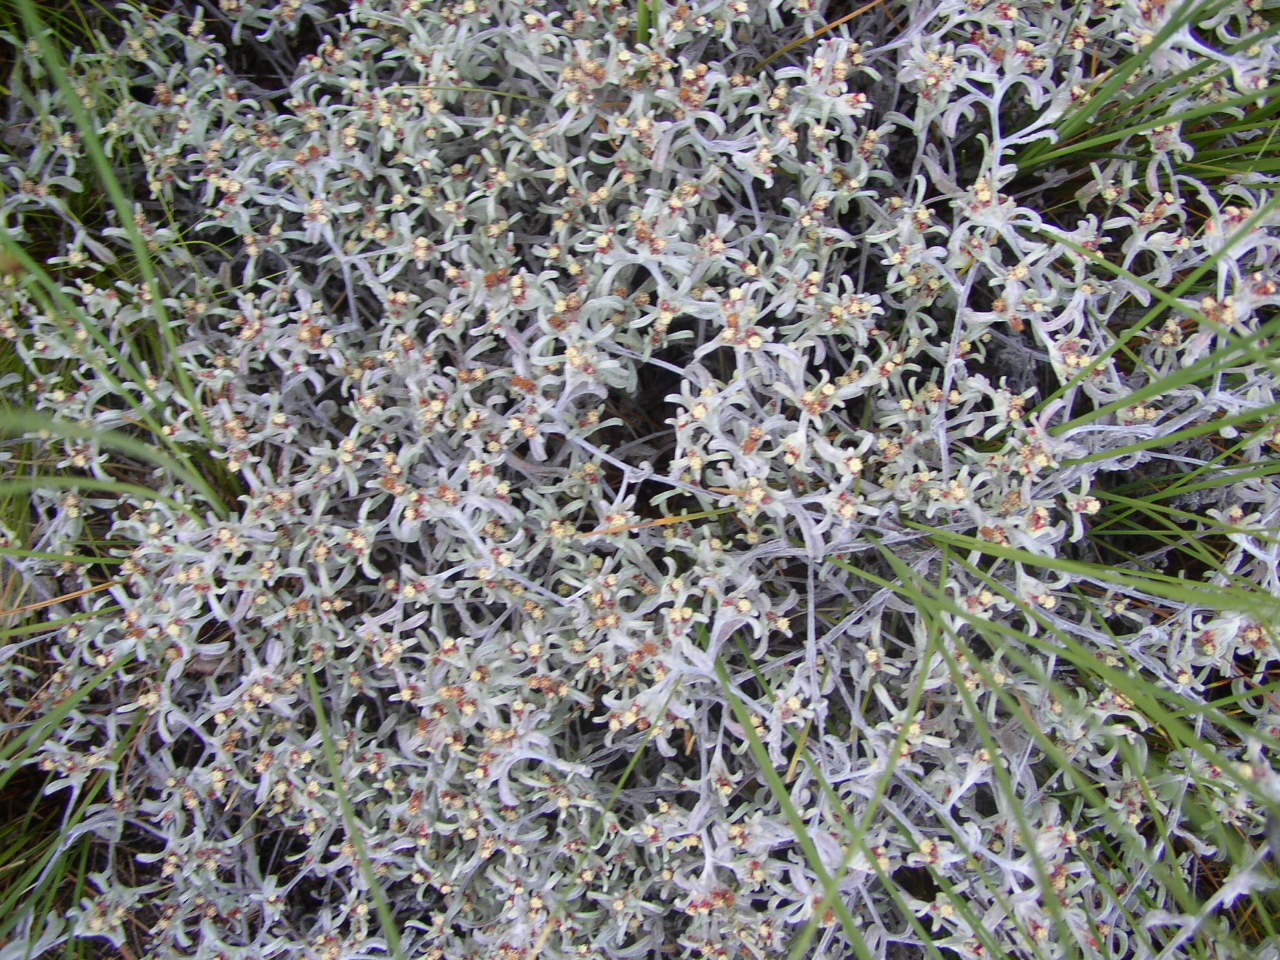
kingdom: Plantae
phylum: Tracheophyta
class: Magnoliopsida
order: Asterales
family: Asteraceae
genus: Helichrysum
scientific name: Helichrysum litorale
